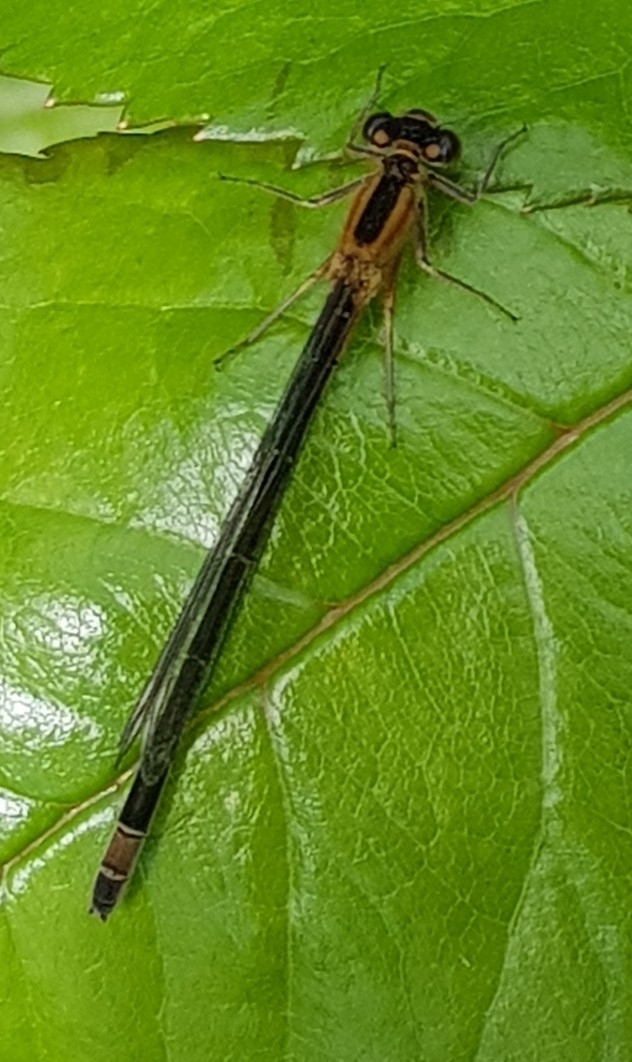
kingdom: Animalia
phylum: Arthropoda
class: Insecta
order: Odonata
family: Coenagrionidae
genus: Ischnura
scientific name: Ischnura elegans
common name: Blue-tailed damselfly
